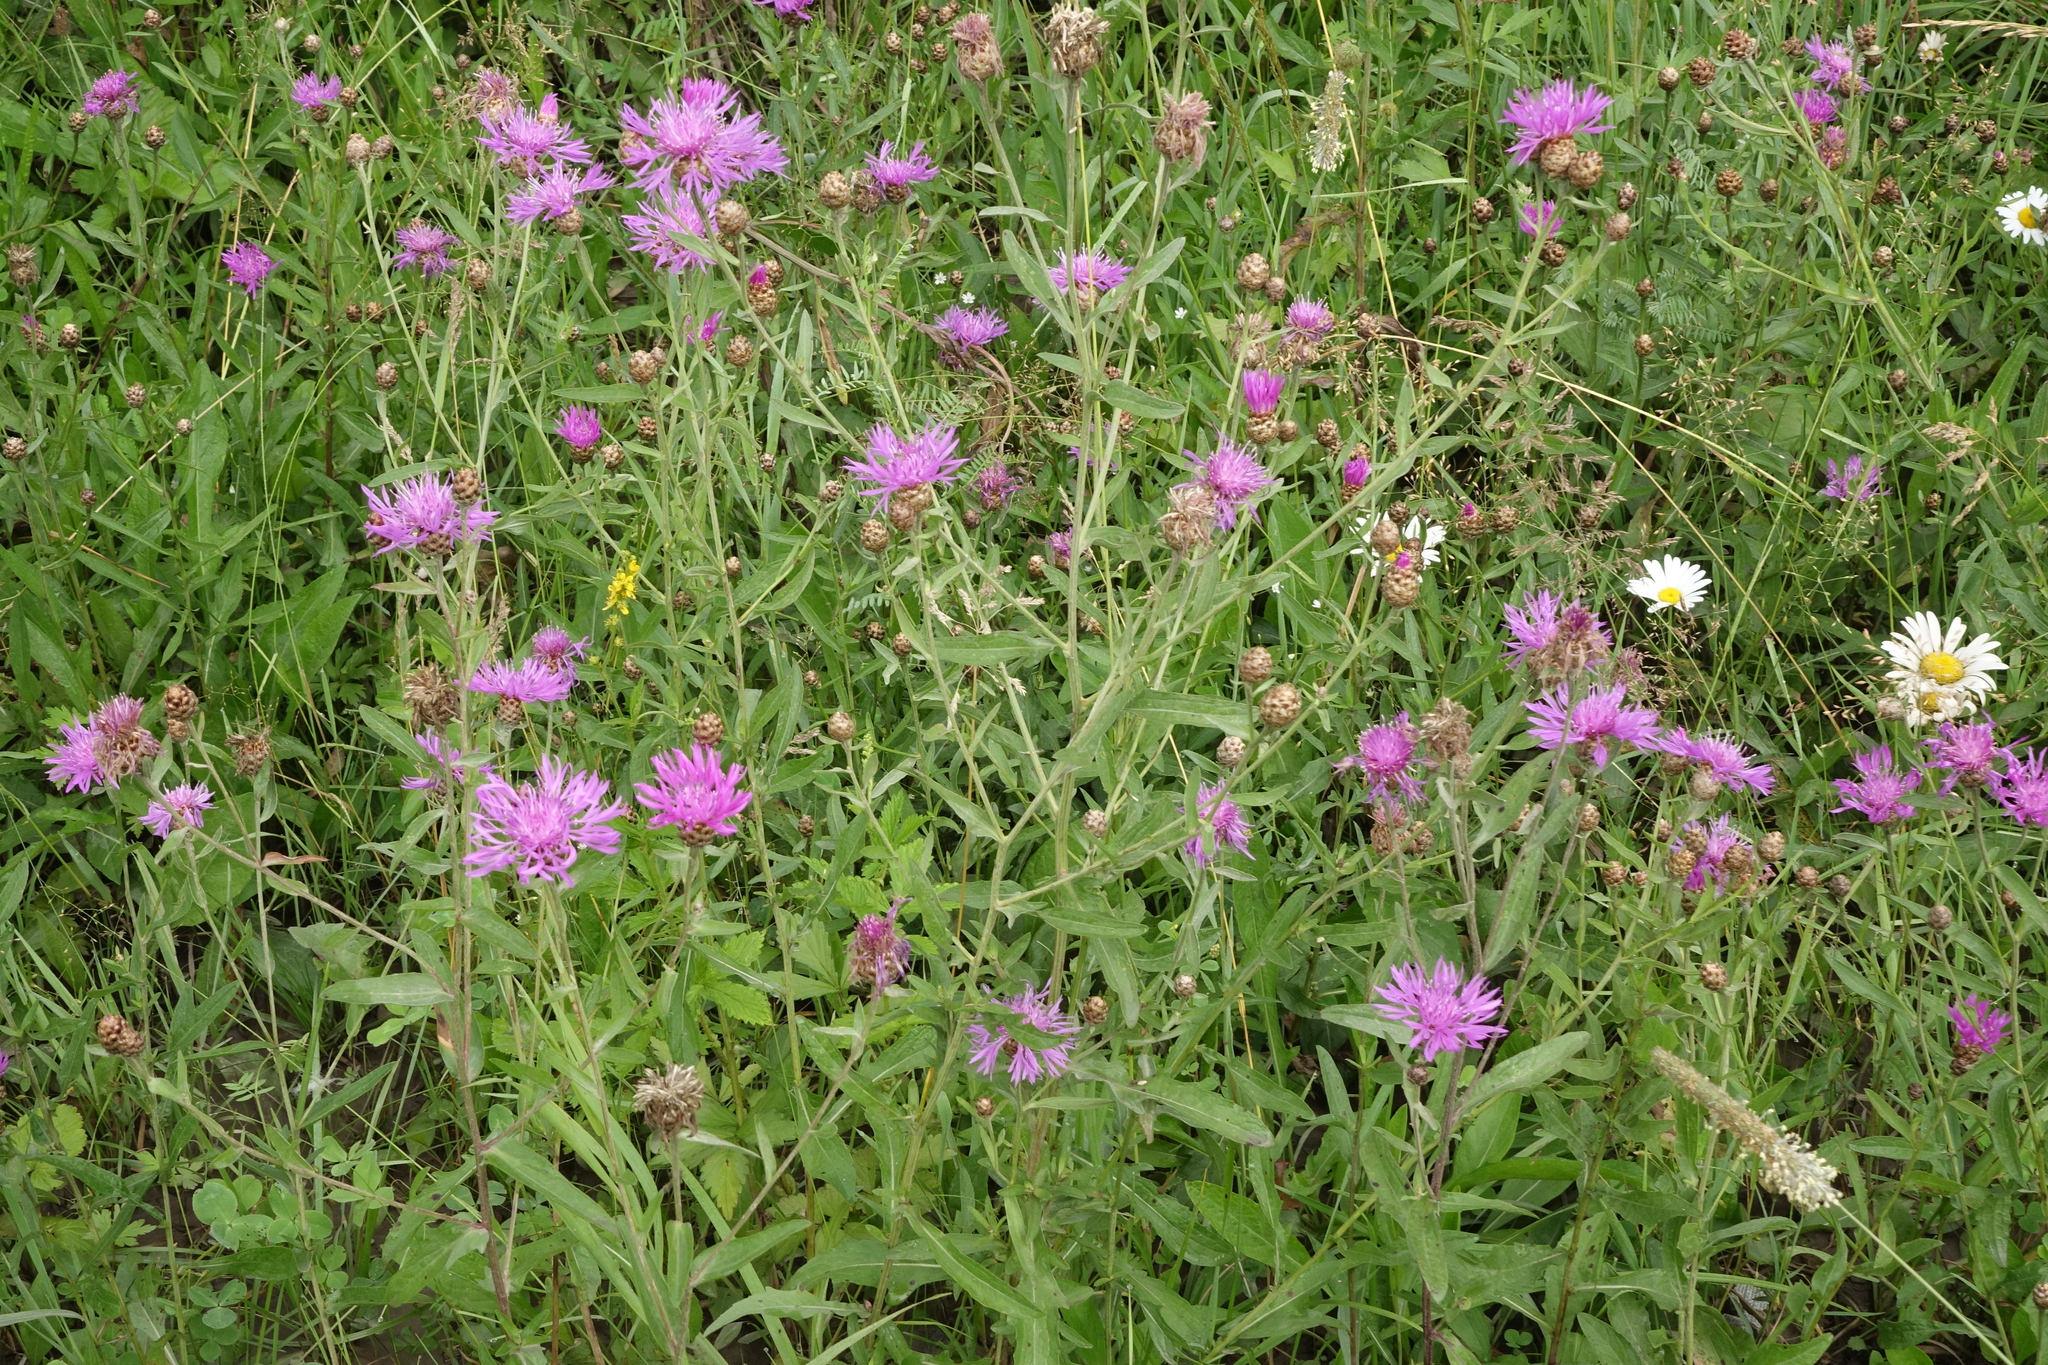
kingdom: Plantae
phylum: Tracheophyta
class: Magnoliopsida
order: Asterales
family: Asteraceae
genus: Centaurea
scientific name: Centaurea jacea
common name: Brown knapweed
